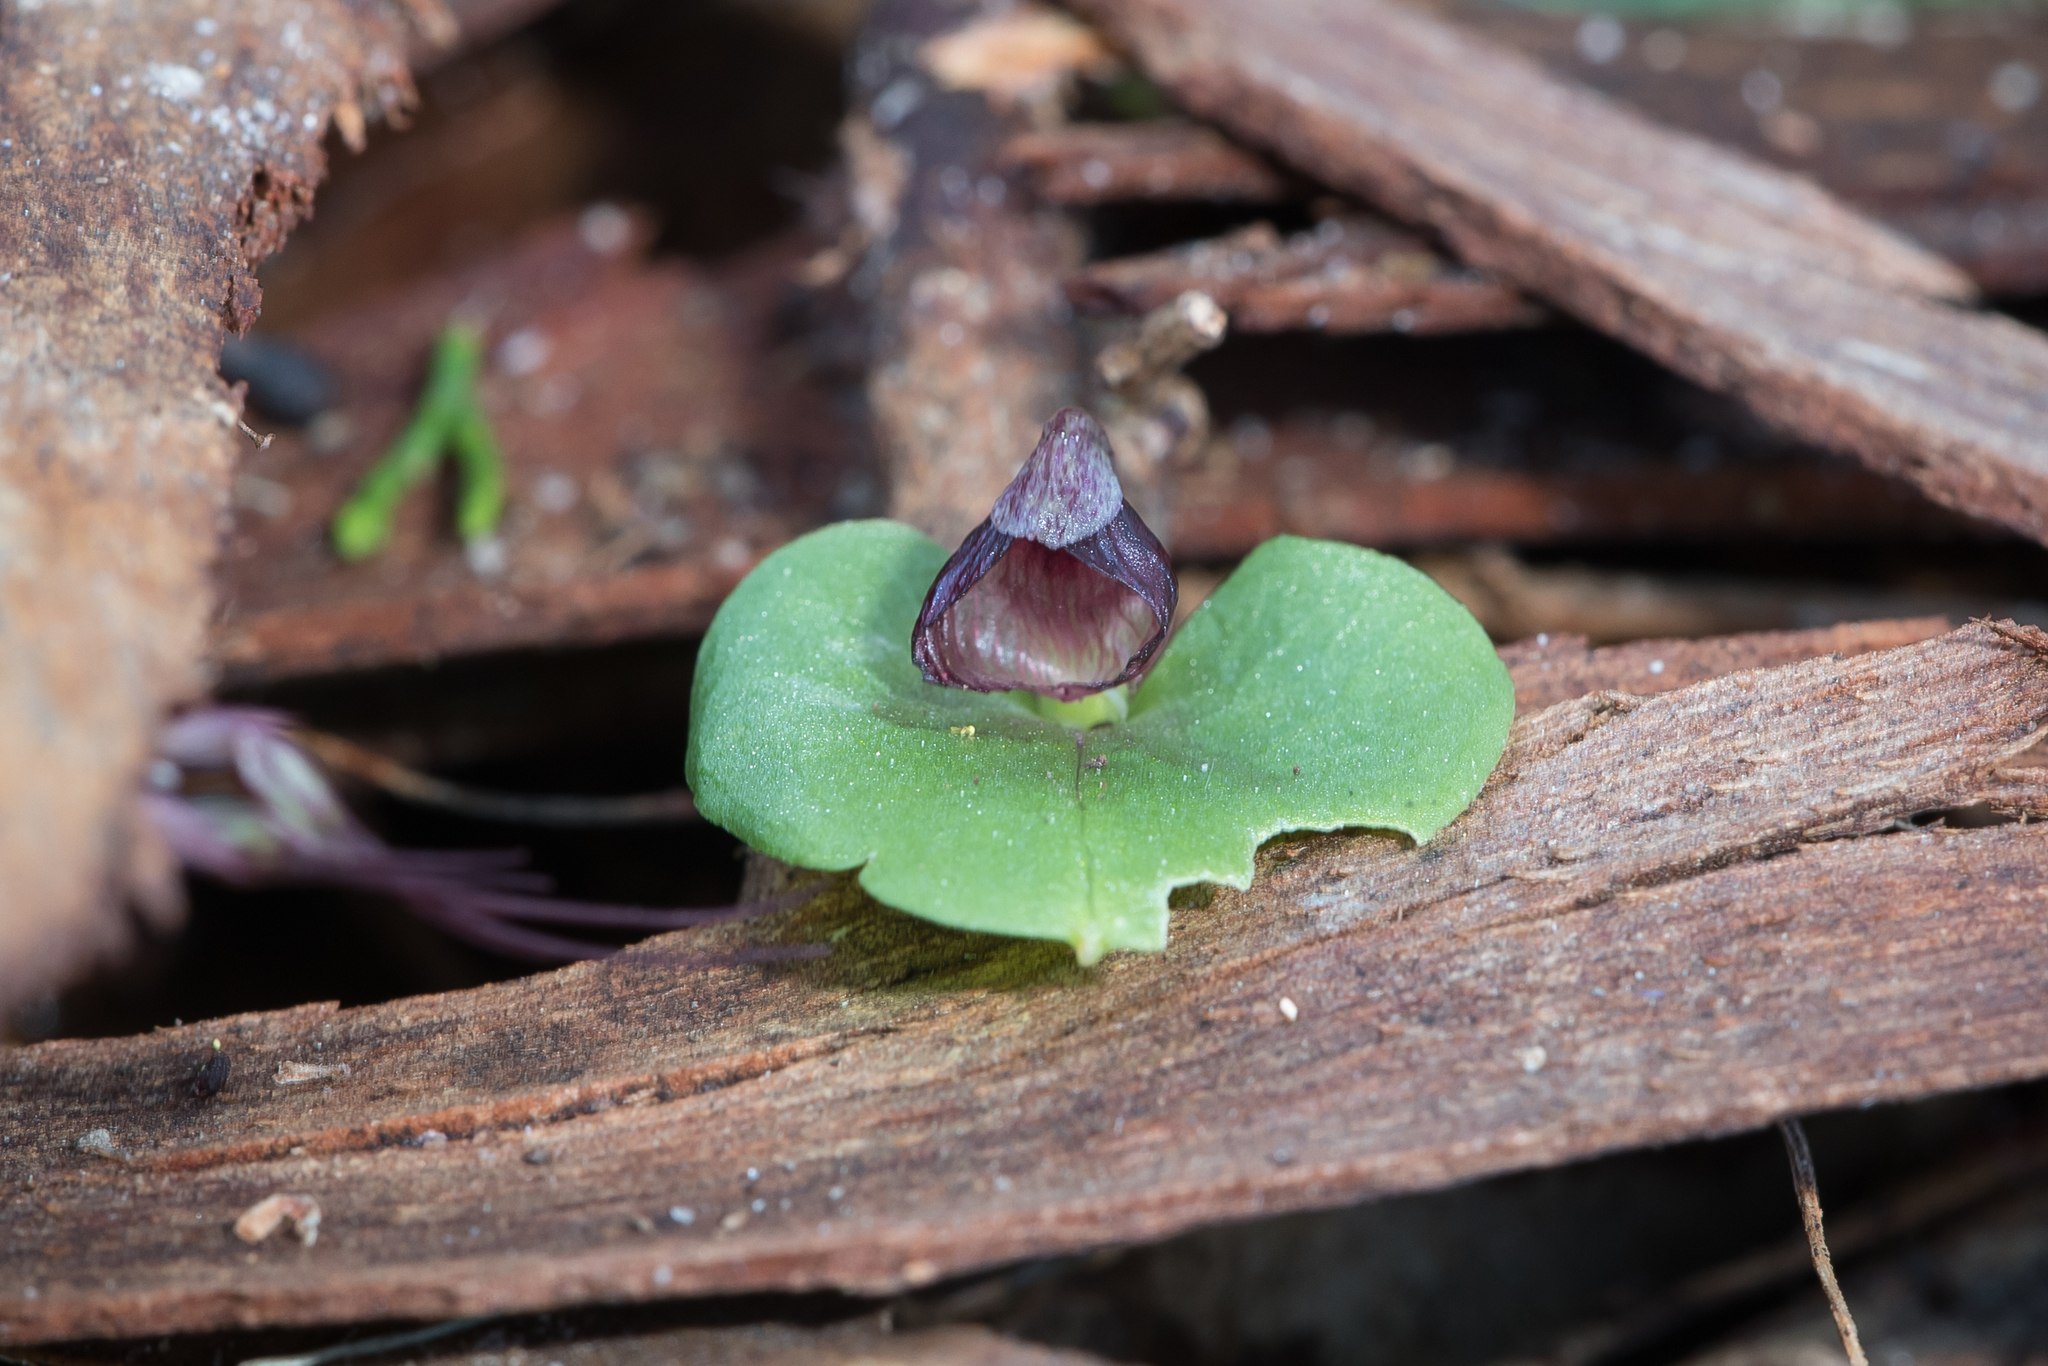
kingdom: Plantae
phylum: Tracheophyta
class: Liliopsida
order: Asparagales
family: Orchidaceae
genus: Corybas
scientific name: Corybas despectans
